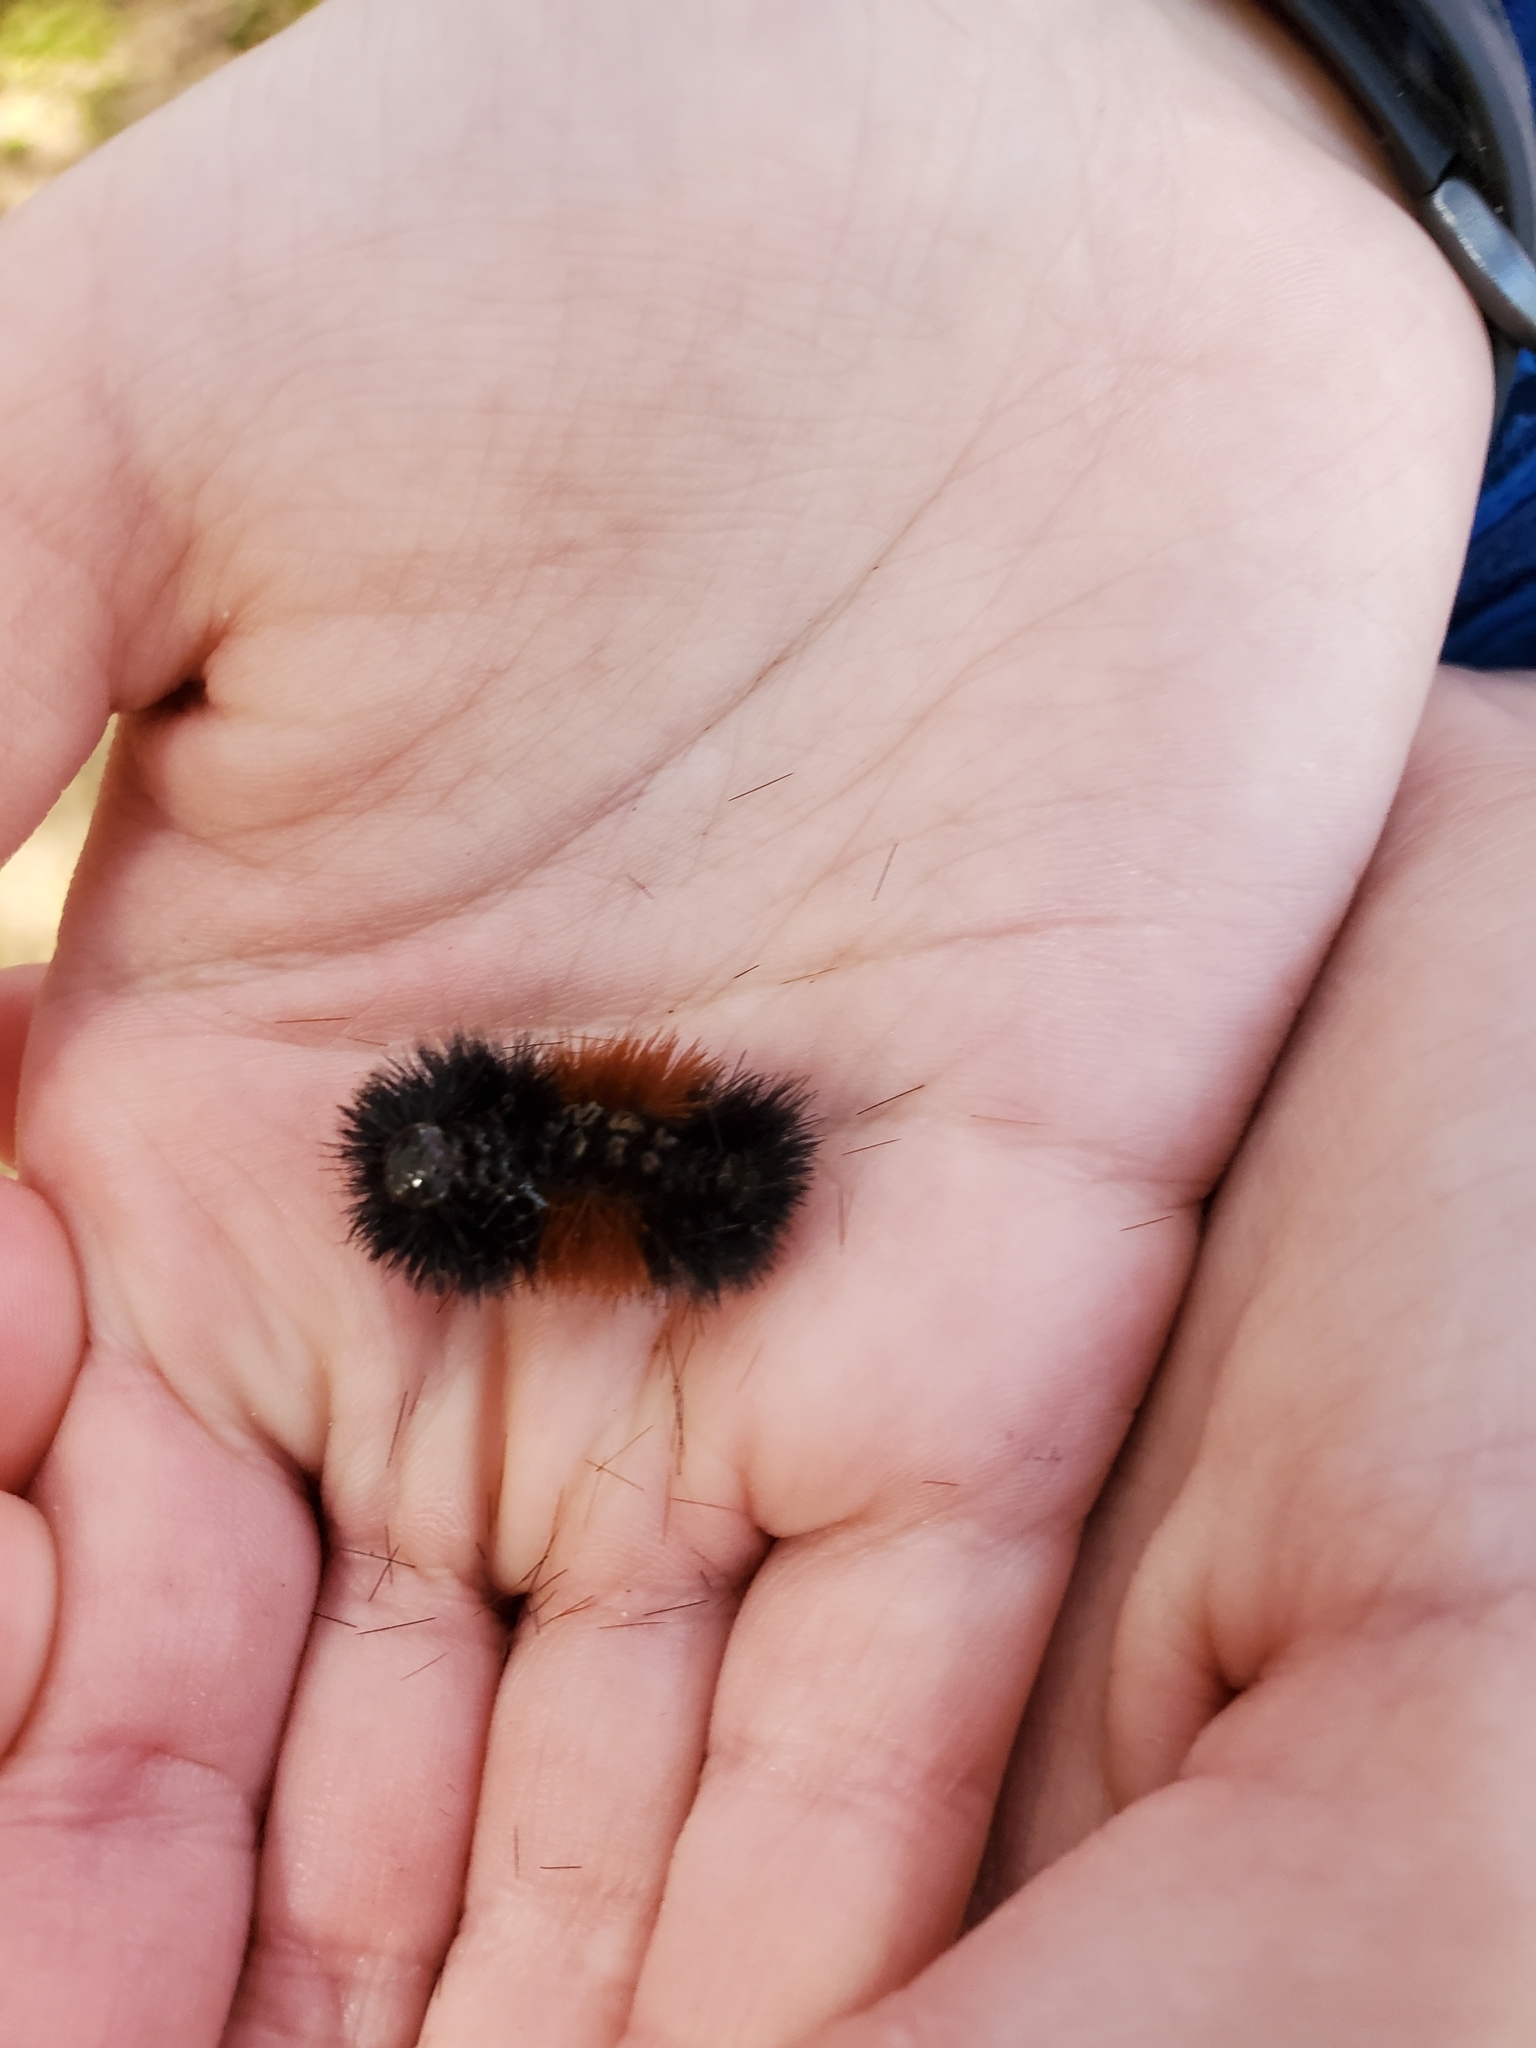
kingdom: Animalia
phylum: Arthropoda
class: Insecta
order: Lepidoptera
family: Erebidae
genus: Pyrrharctia
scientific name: Pyrrharctia isabella
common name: Isabella tiger moth
